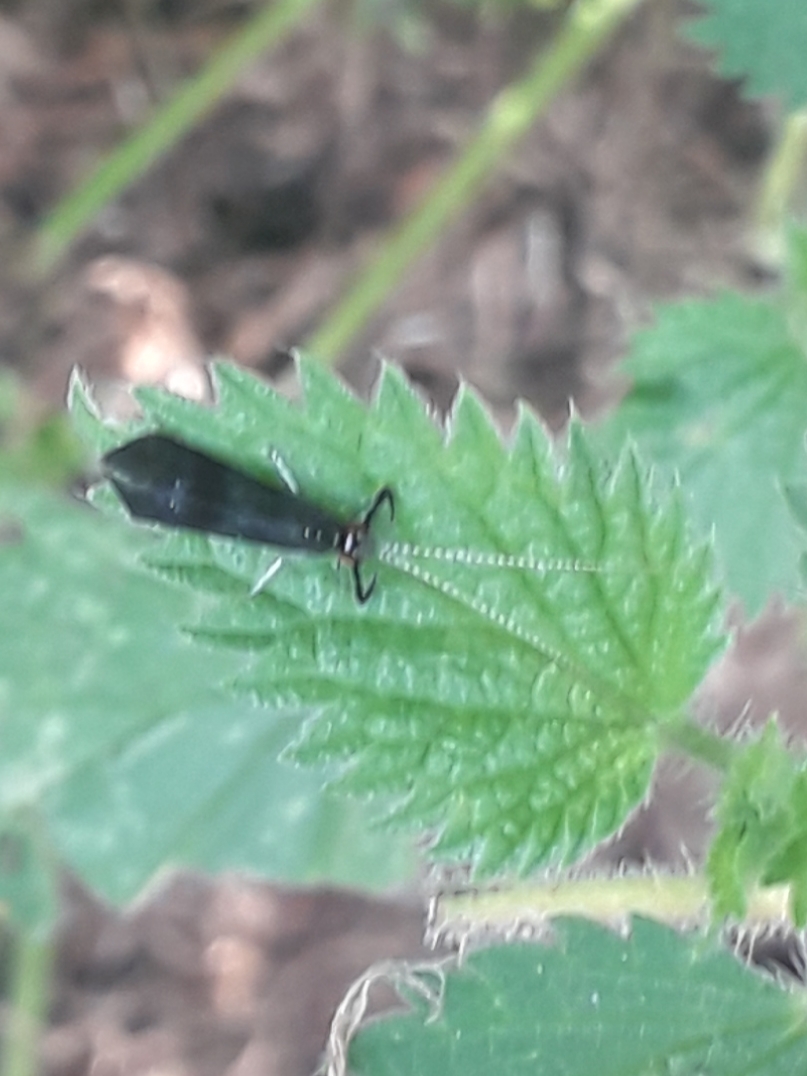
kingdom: Animalia
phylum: Arthropoda
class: Insecta
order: Trichoptera
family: Leptoceridae
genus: Mystacides
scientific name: Mystacides azureus
